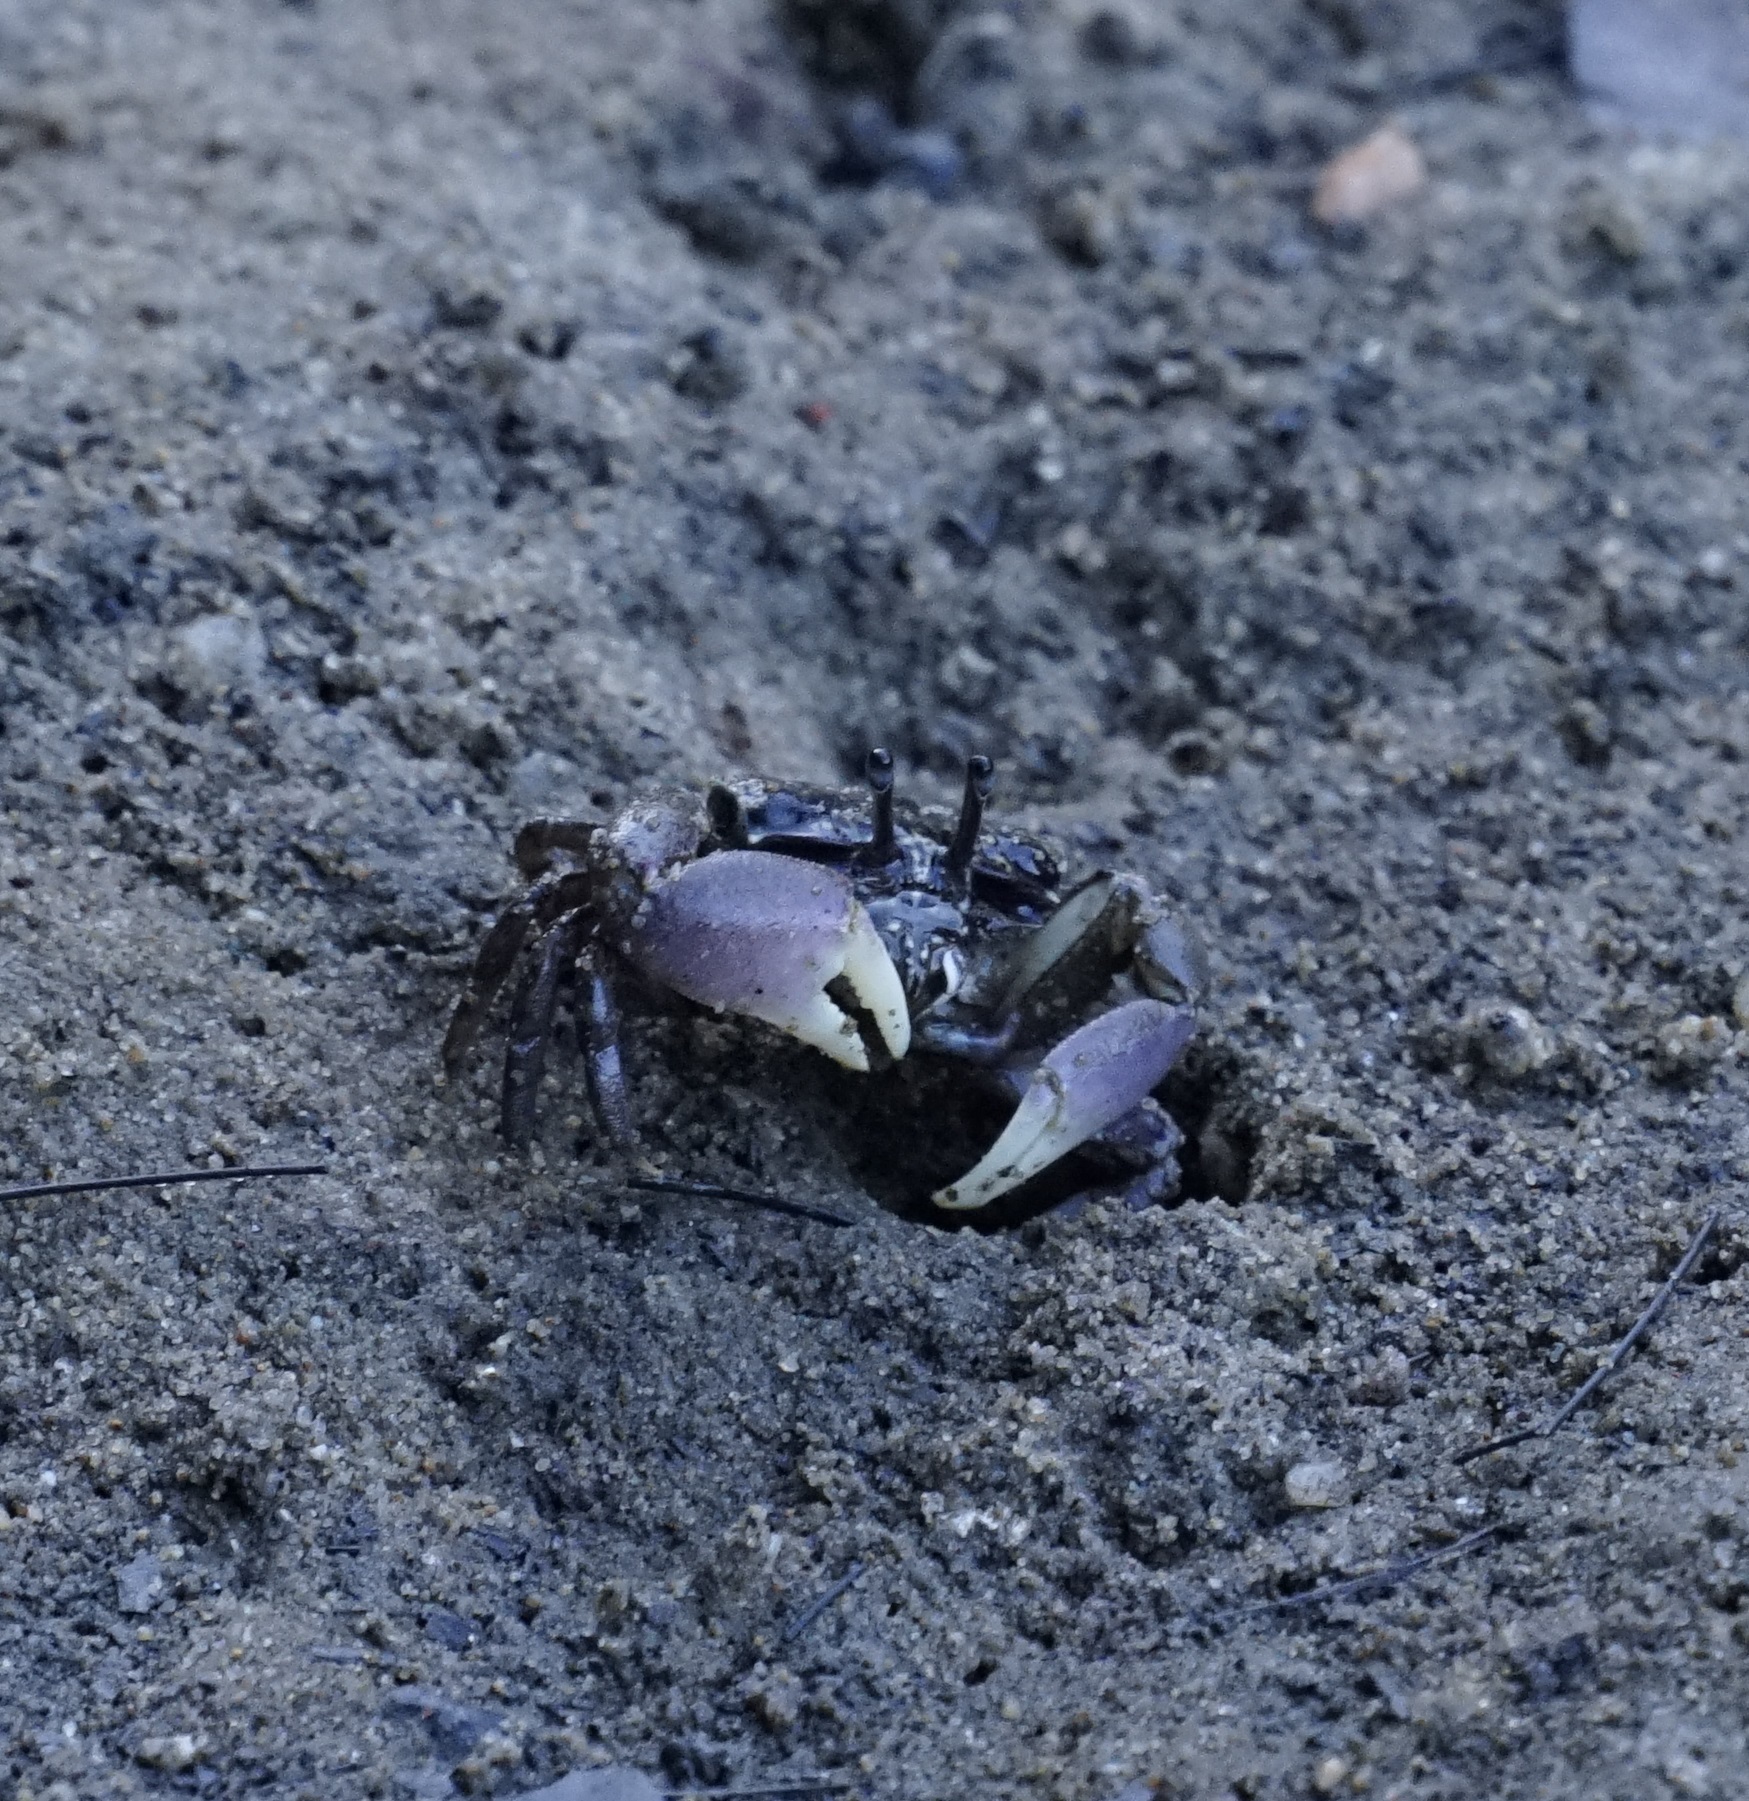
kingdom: Animalia
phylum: Arthropoda
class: Malacostraca
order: Decapoda
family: Heloeciidae
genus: Heloecius
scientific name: Heloecius cordiformis
